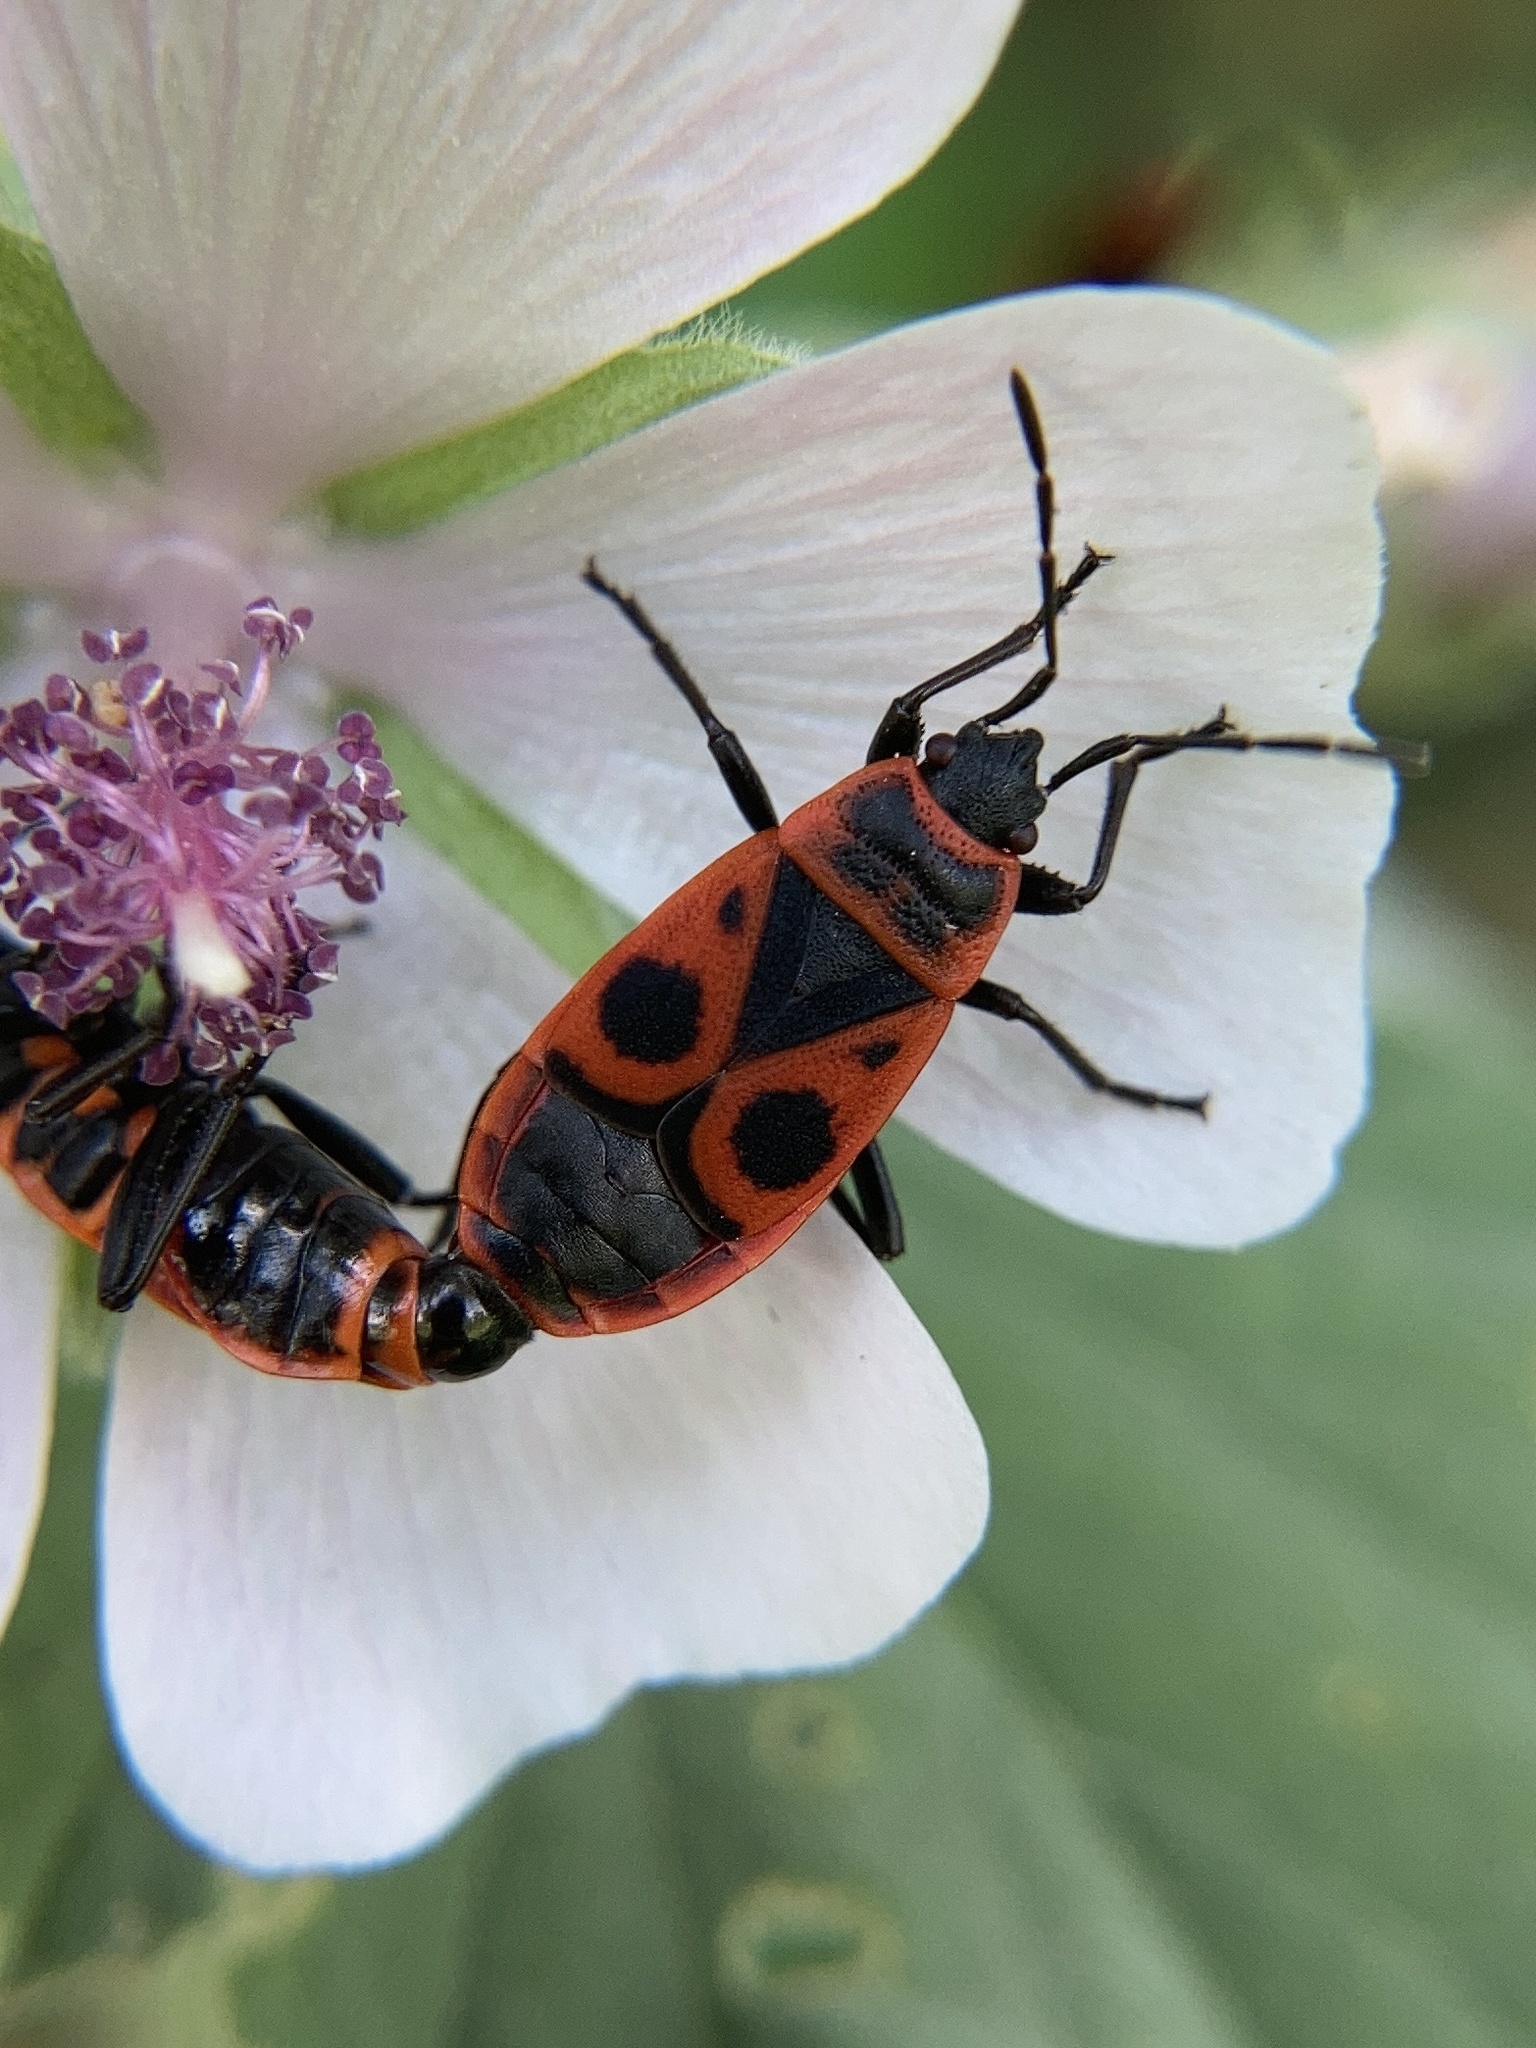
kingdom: Animalia
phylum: Arthropoda
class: Insecta
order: Hemiptera
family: Pyrrhocoridae
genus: Pyrrhocoris
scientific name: Pyrrhocoris apterus
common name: Firebug
